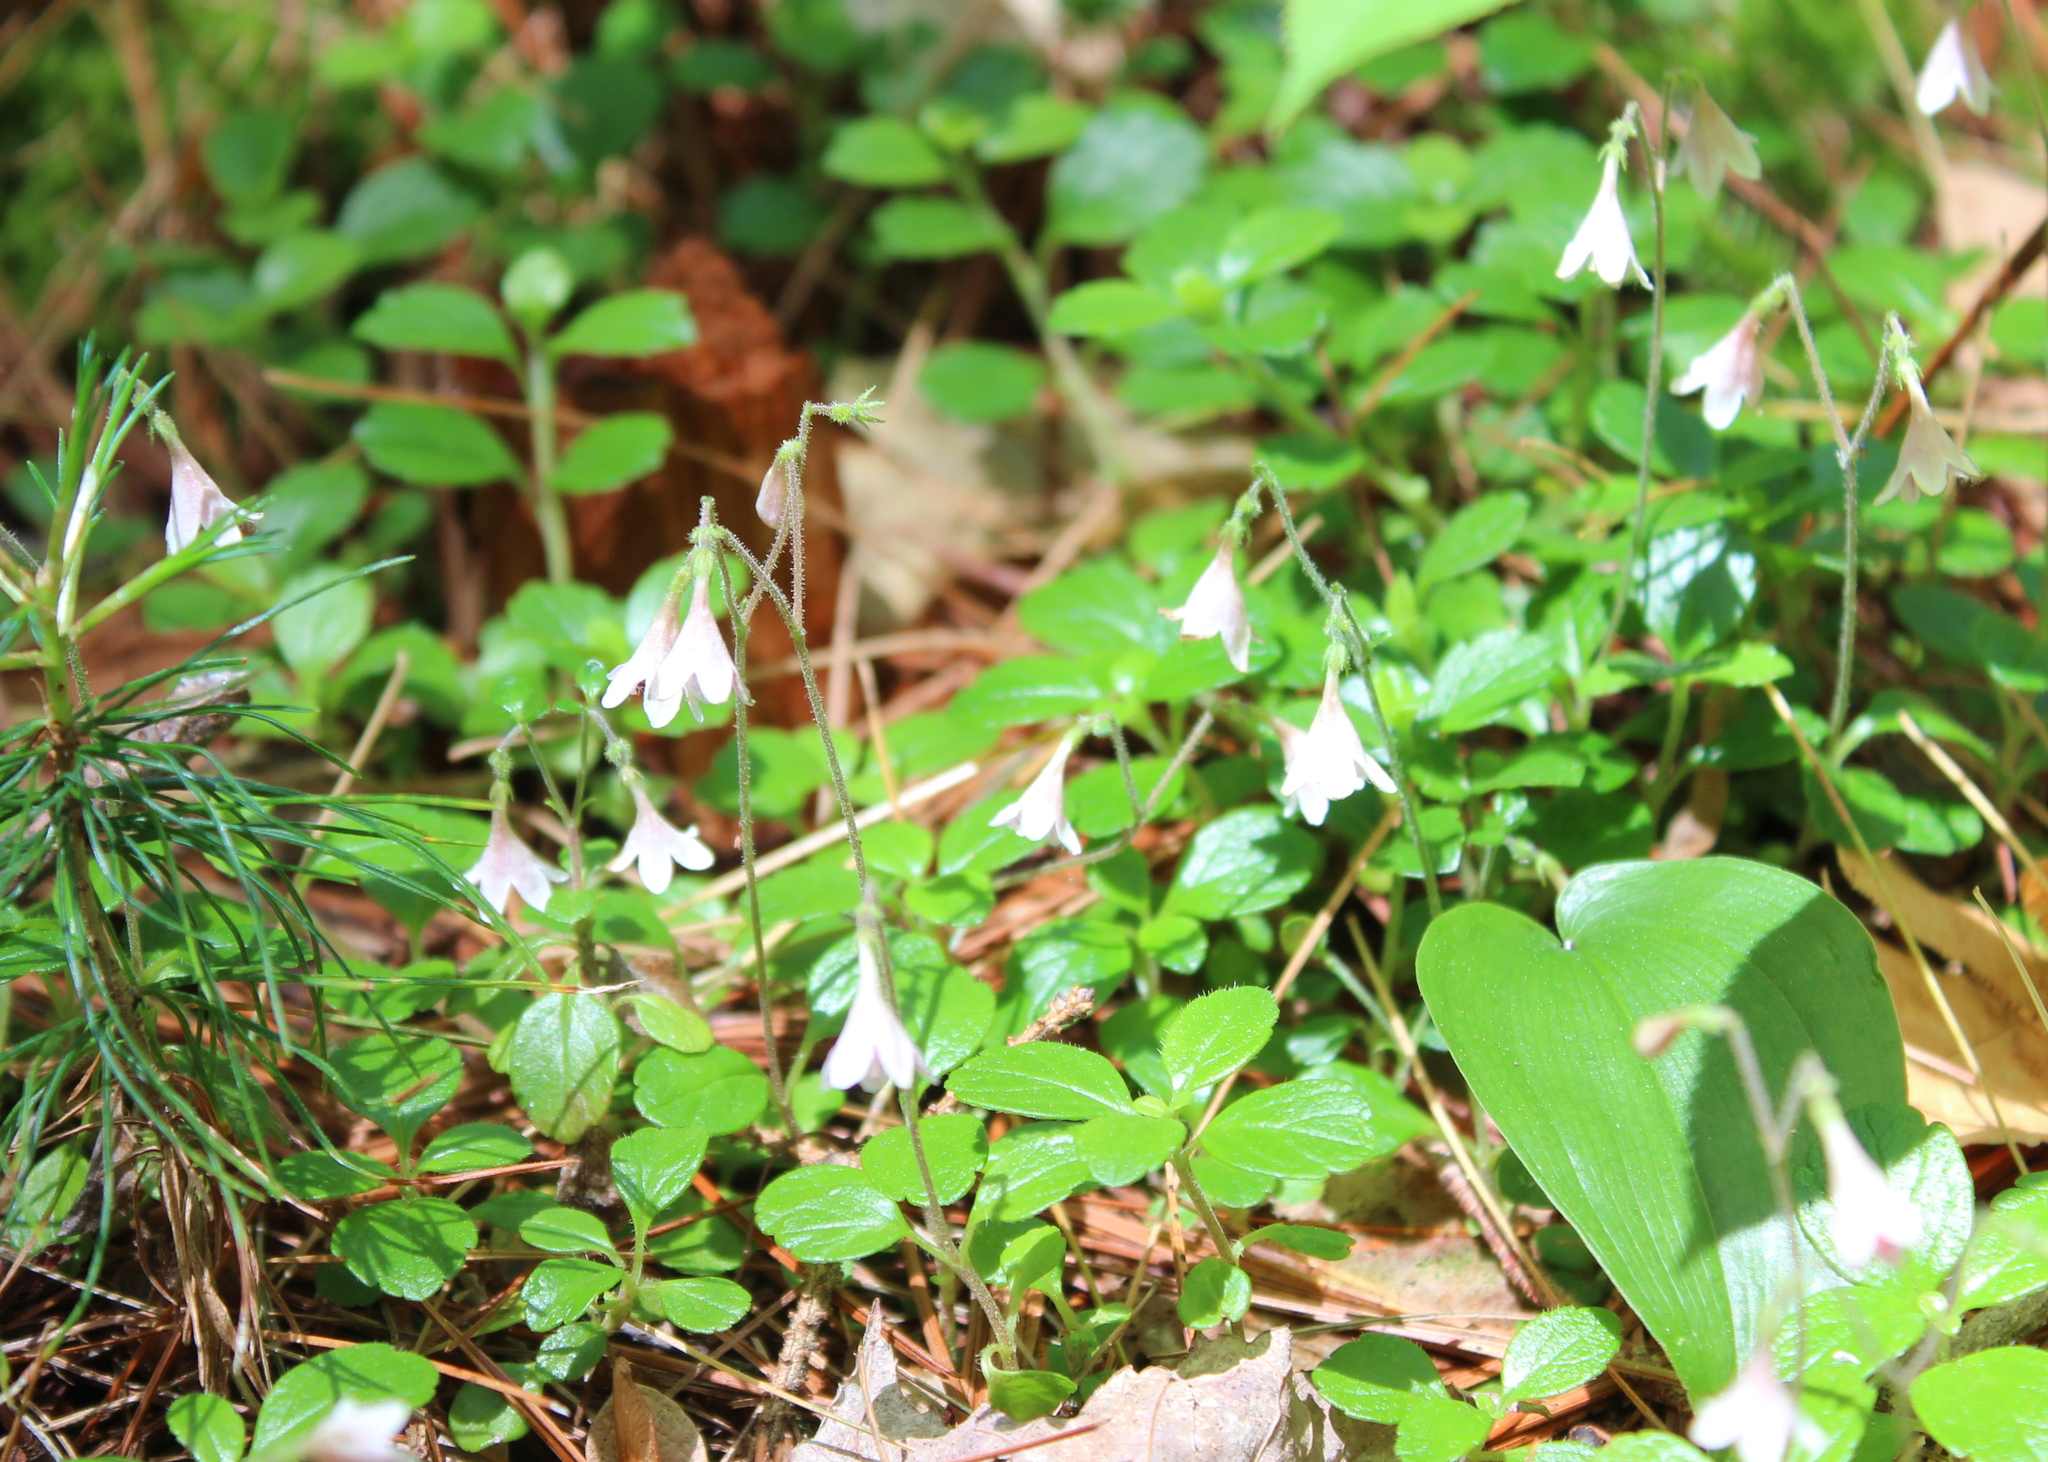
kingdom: Plantae
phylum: Tracheophyta
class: Magnoliopsida
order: Dipsacales
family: Caprifoliaceae
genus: Linnaea
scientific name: Linnaea borealis
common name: Twinflower
